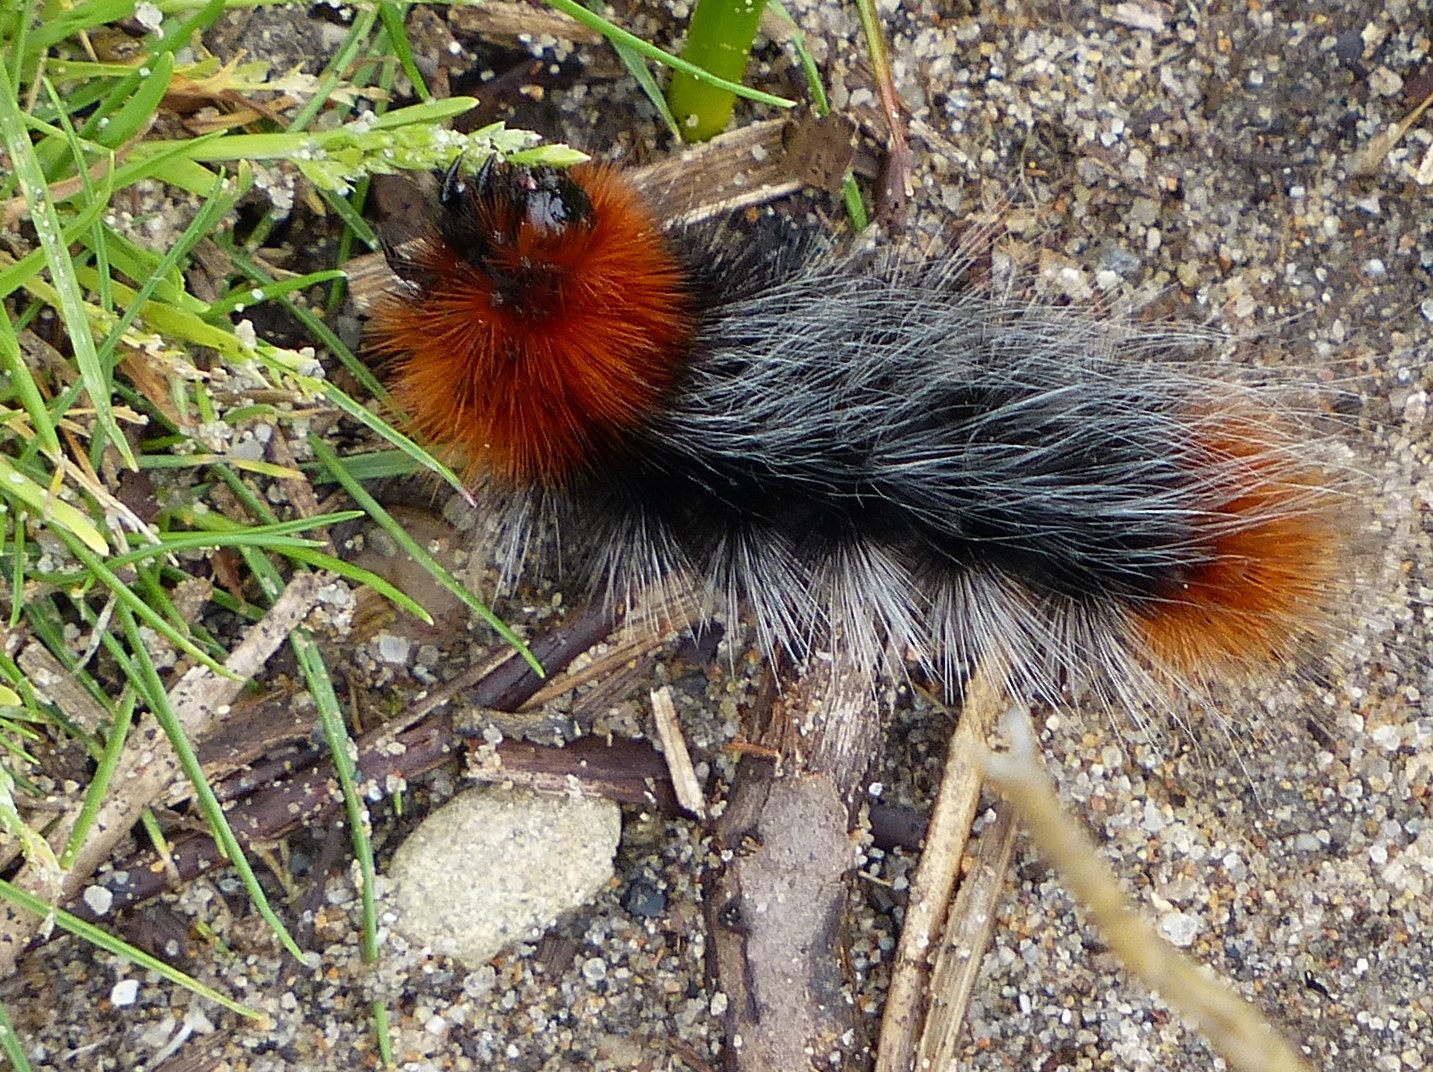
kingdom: Animalia
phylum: Arthropoda
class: Insecta
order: Lepidoptera
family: Erebidae
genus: Arctia
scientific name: Arctia tigrina
